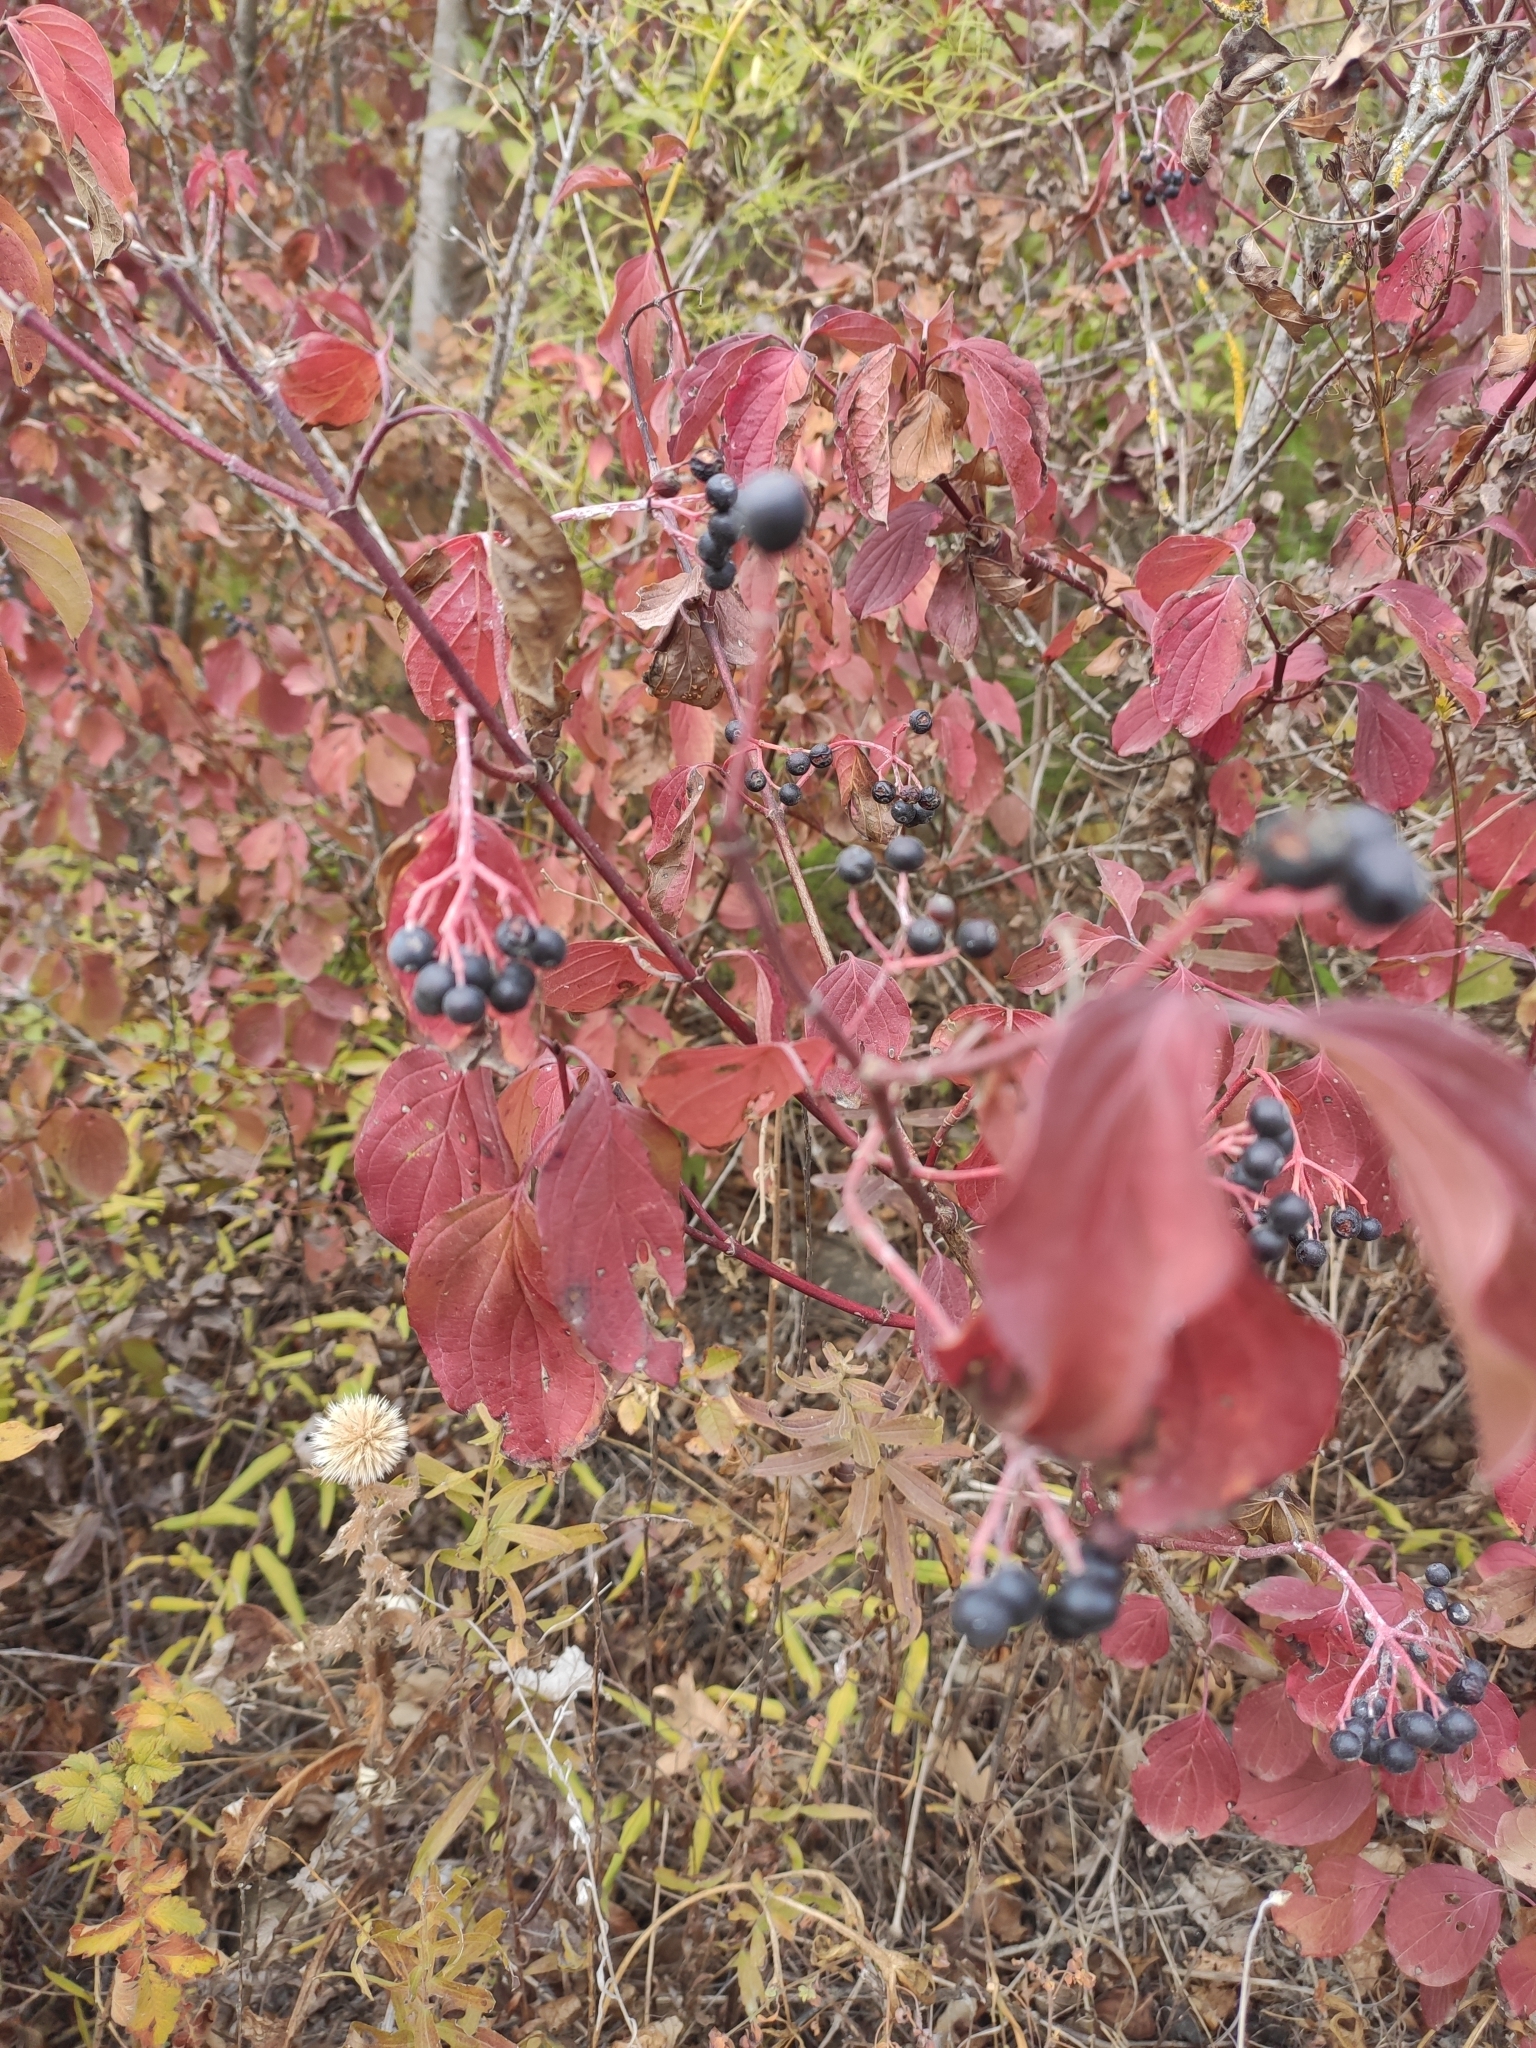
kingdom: Plantae
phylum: Tracheophyta
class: Magnoliopsida
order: Cornales
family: Cornaceae
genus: Cornus
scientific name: Cornus sanguinea
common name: Dogwood
